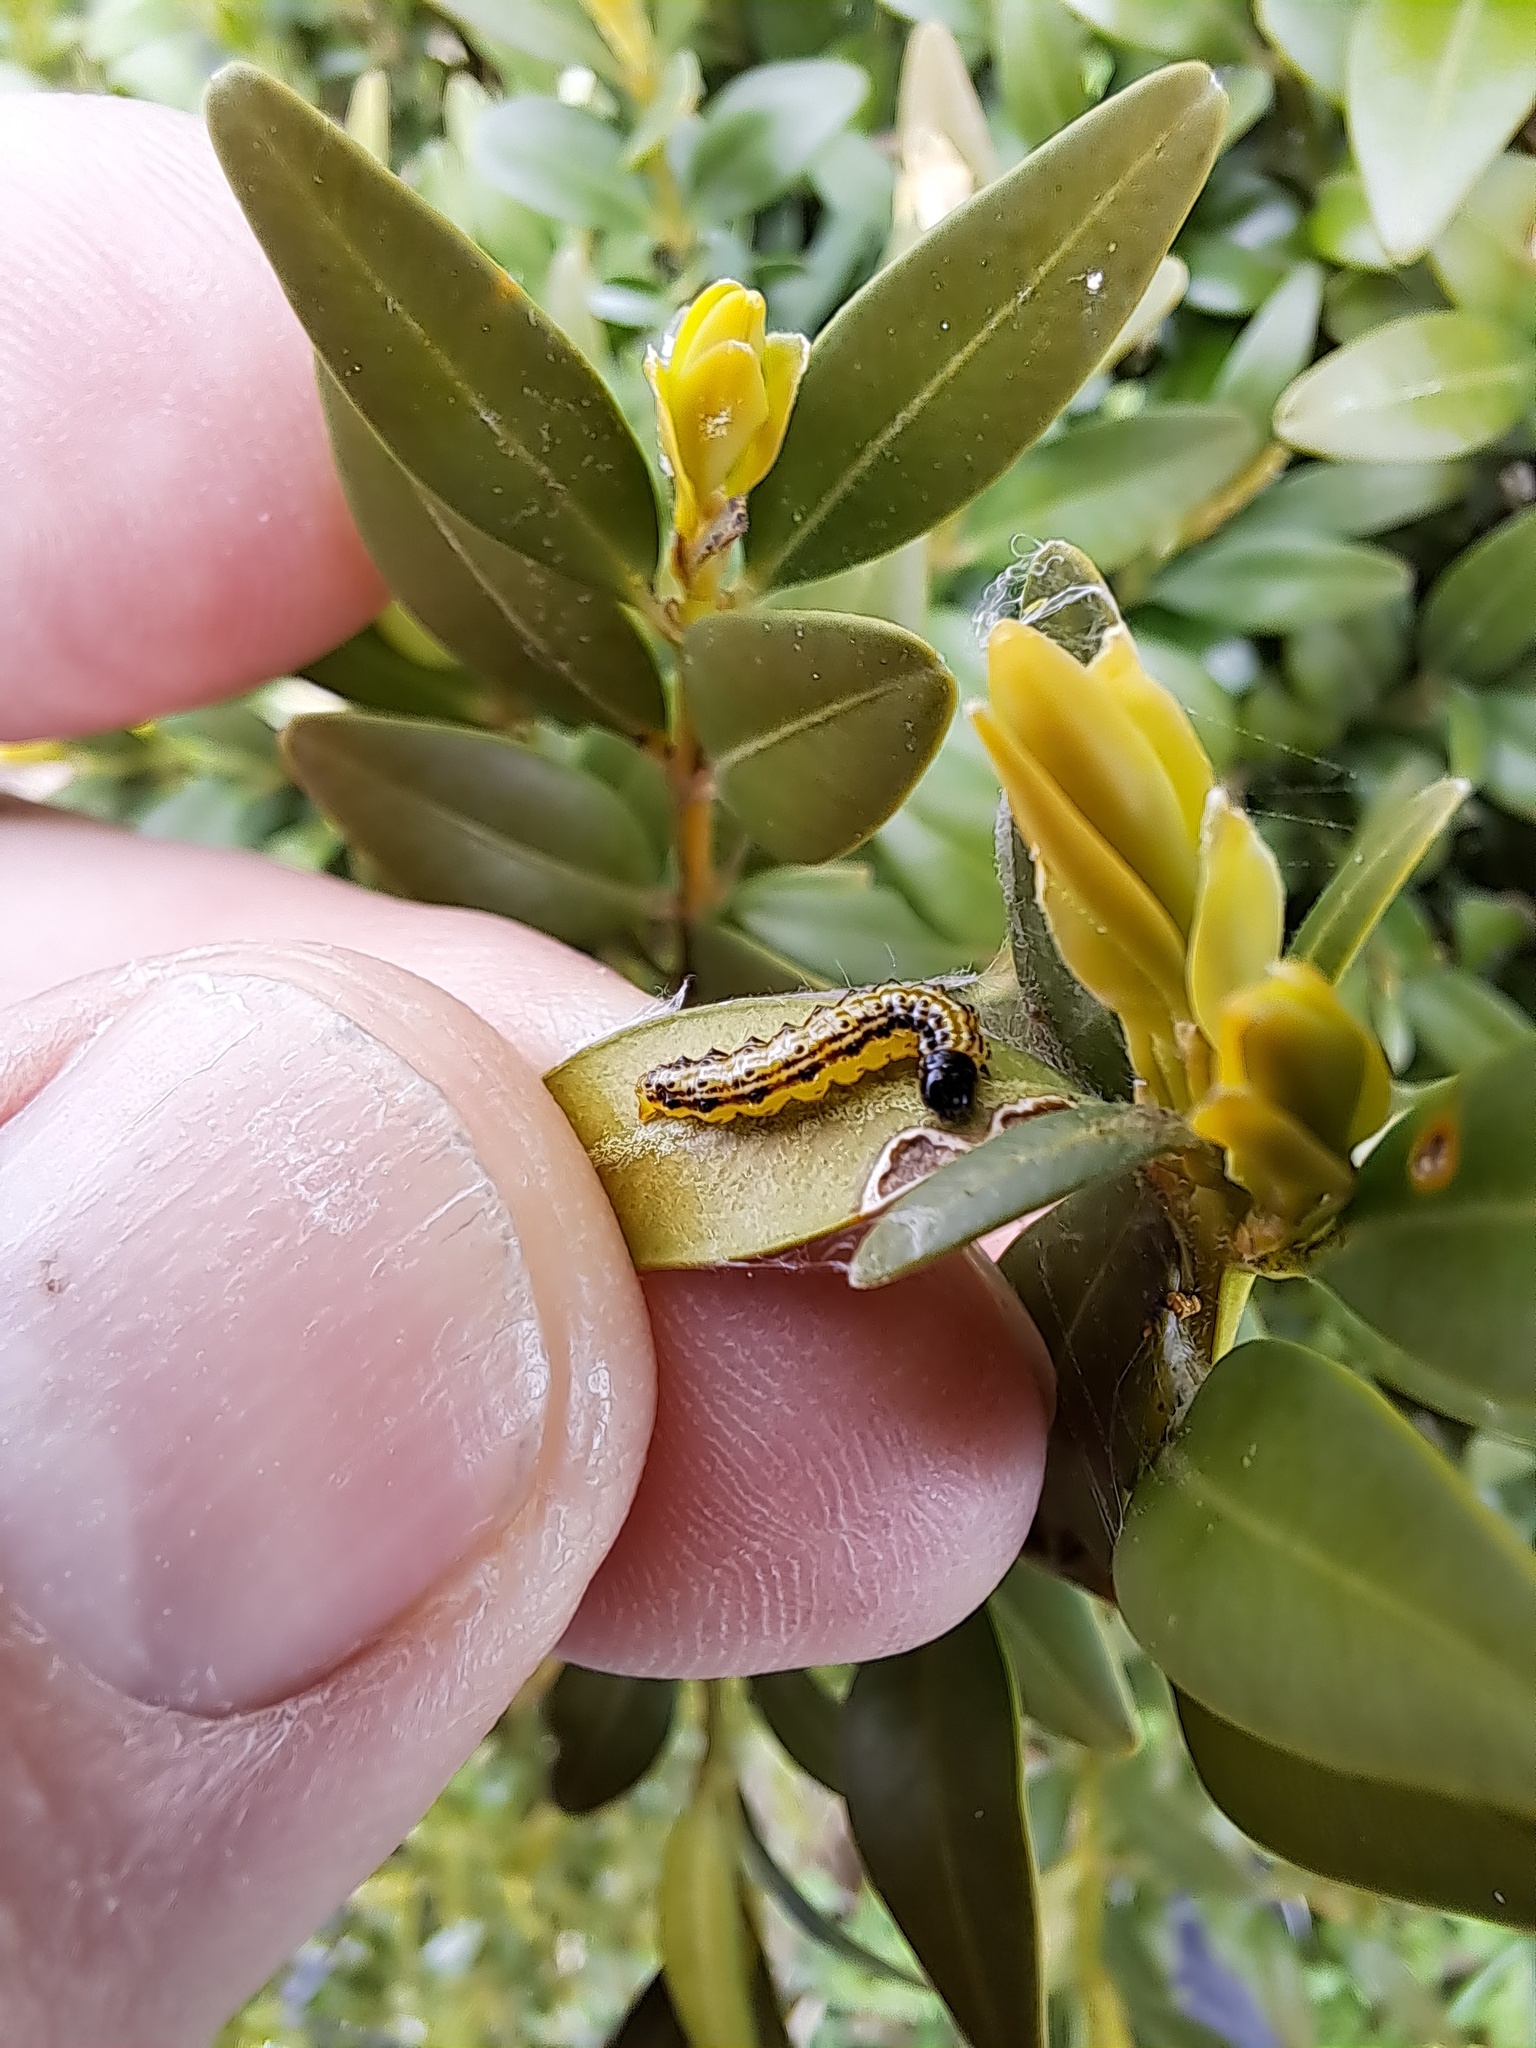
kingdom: Animalia
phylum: Arthropoda
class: Insecta
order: Lepidoptera
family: Crambidae
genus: Cydalima
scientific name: Cydalima perspectalis
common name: Box tree moth
